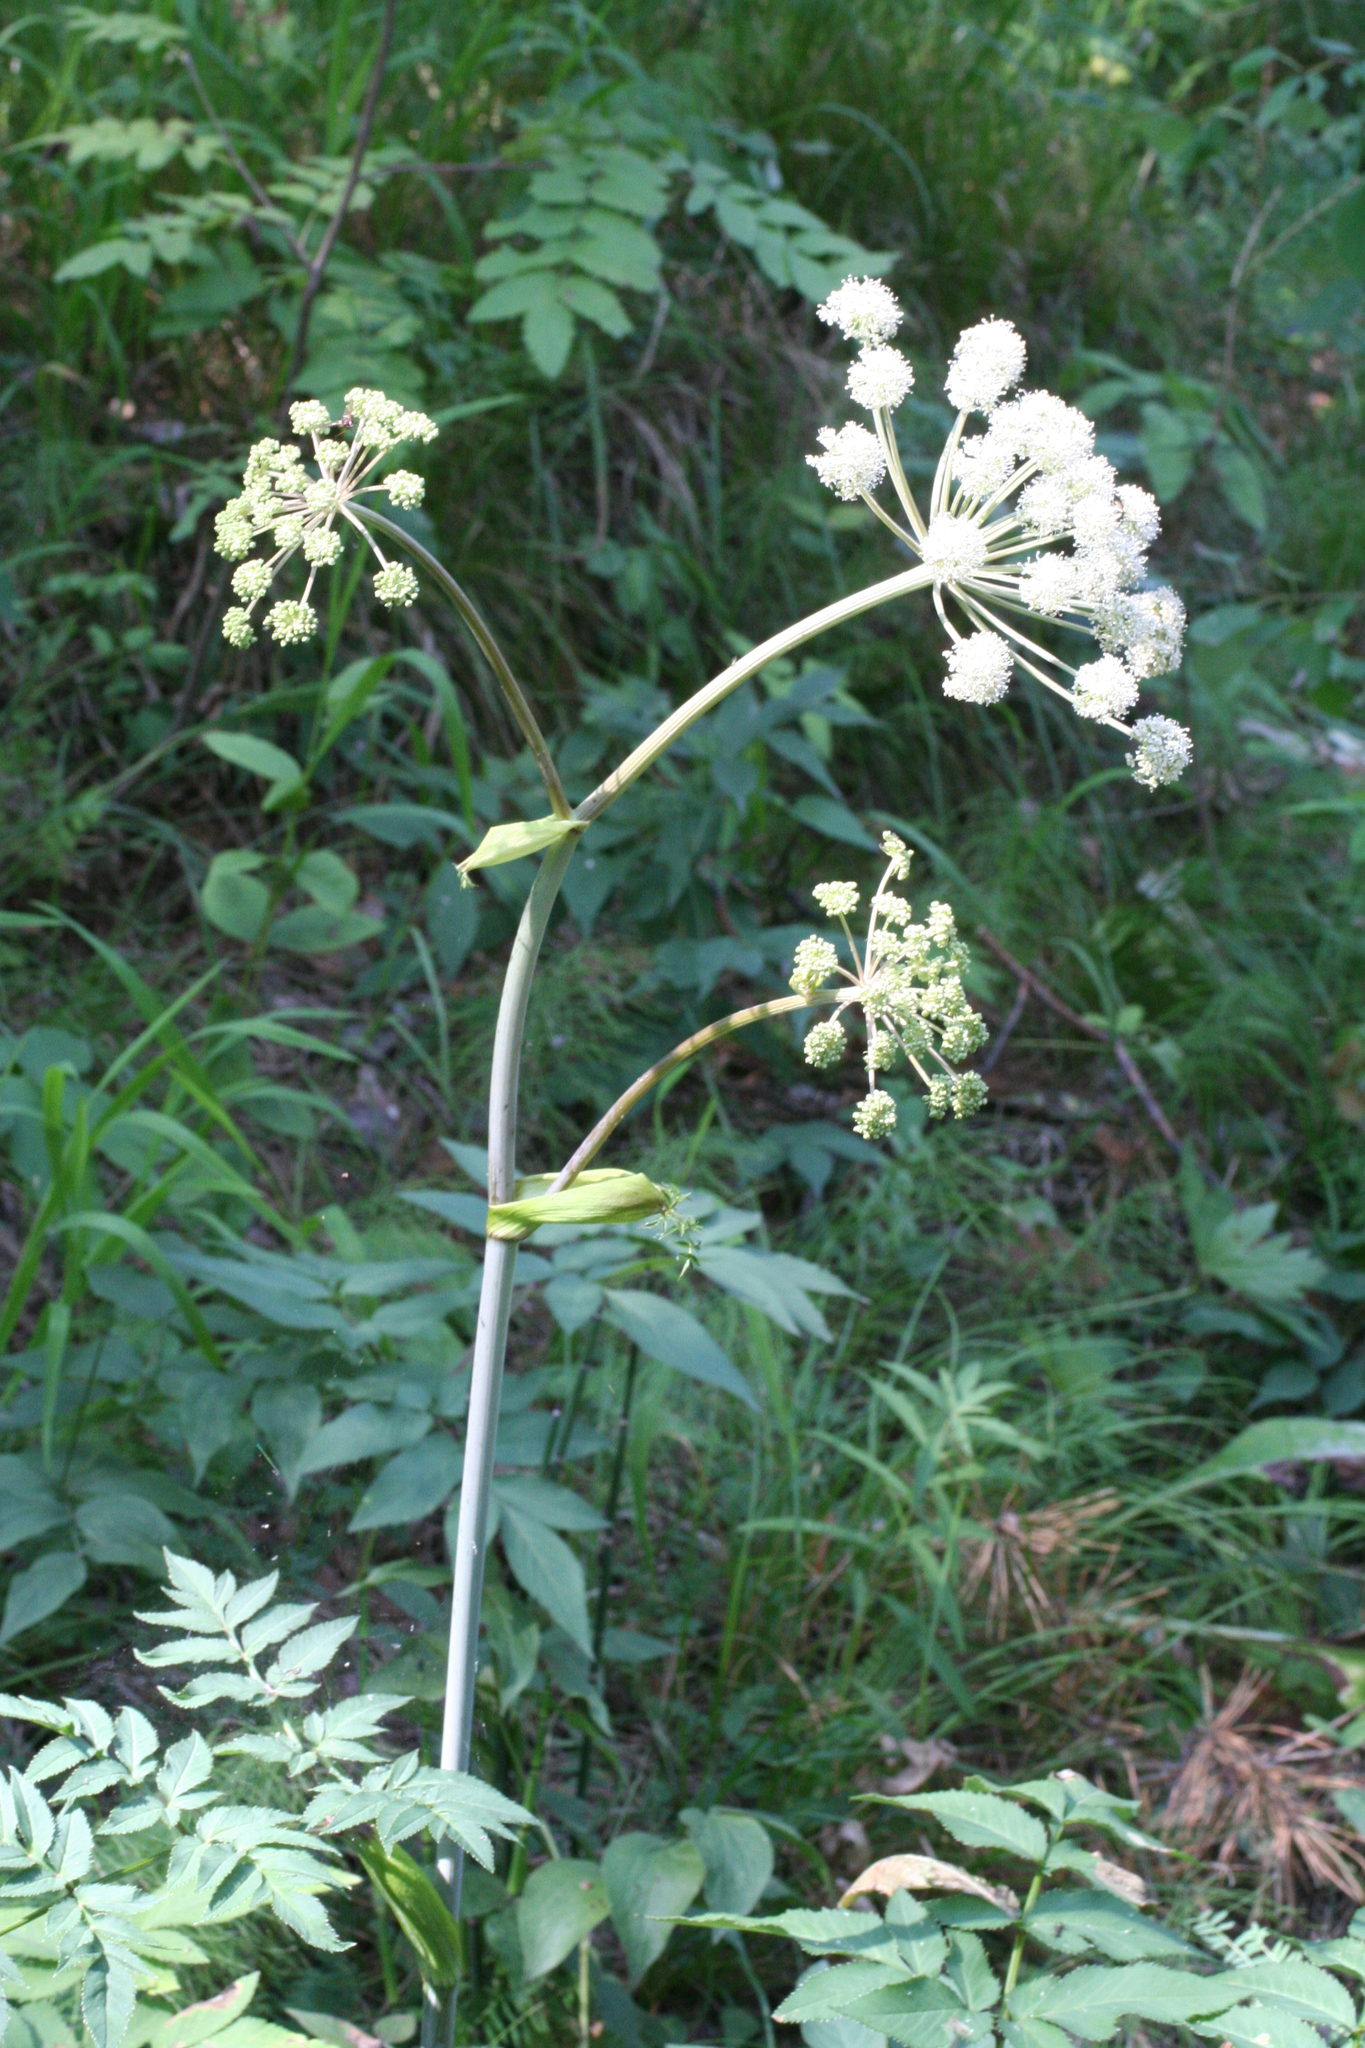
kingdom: Plantae
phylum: Tracheophyta
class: Magnoliopsida
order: Apiales
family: Apiaceae
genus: Angelica
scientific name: Angelica sylvestris
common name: Wild angelica
